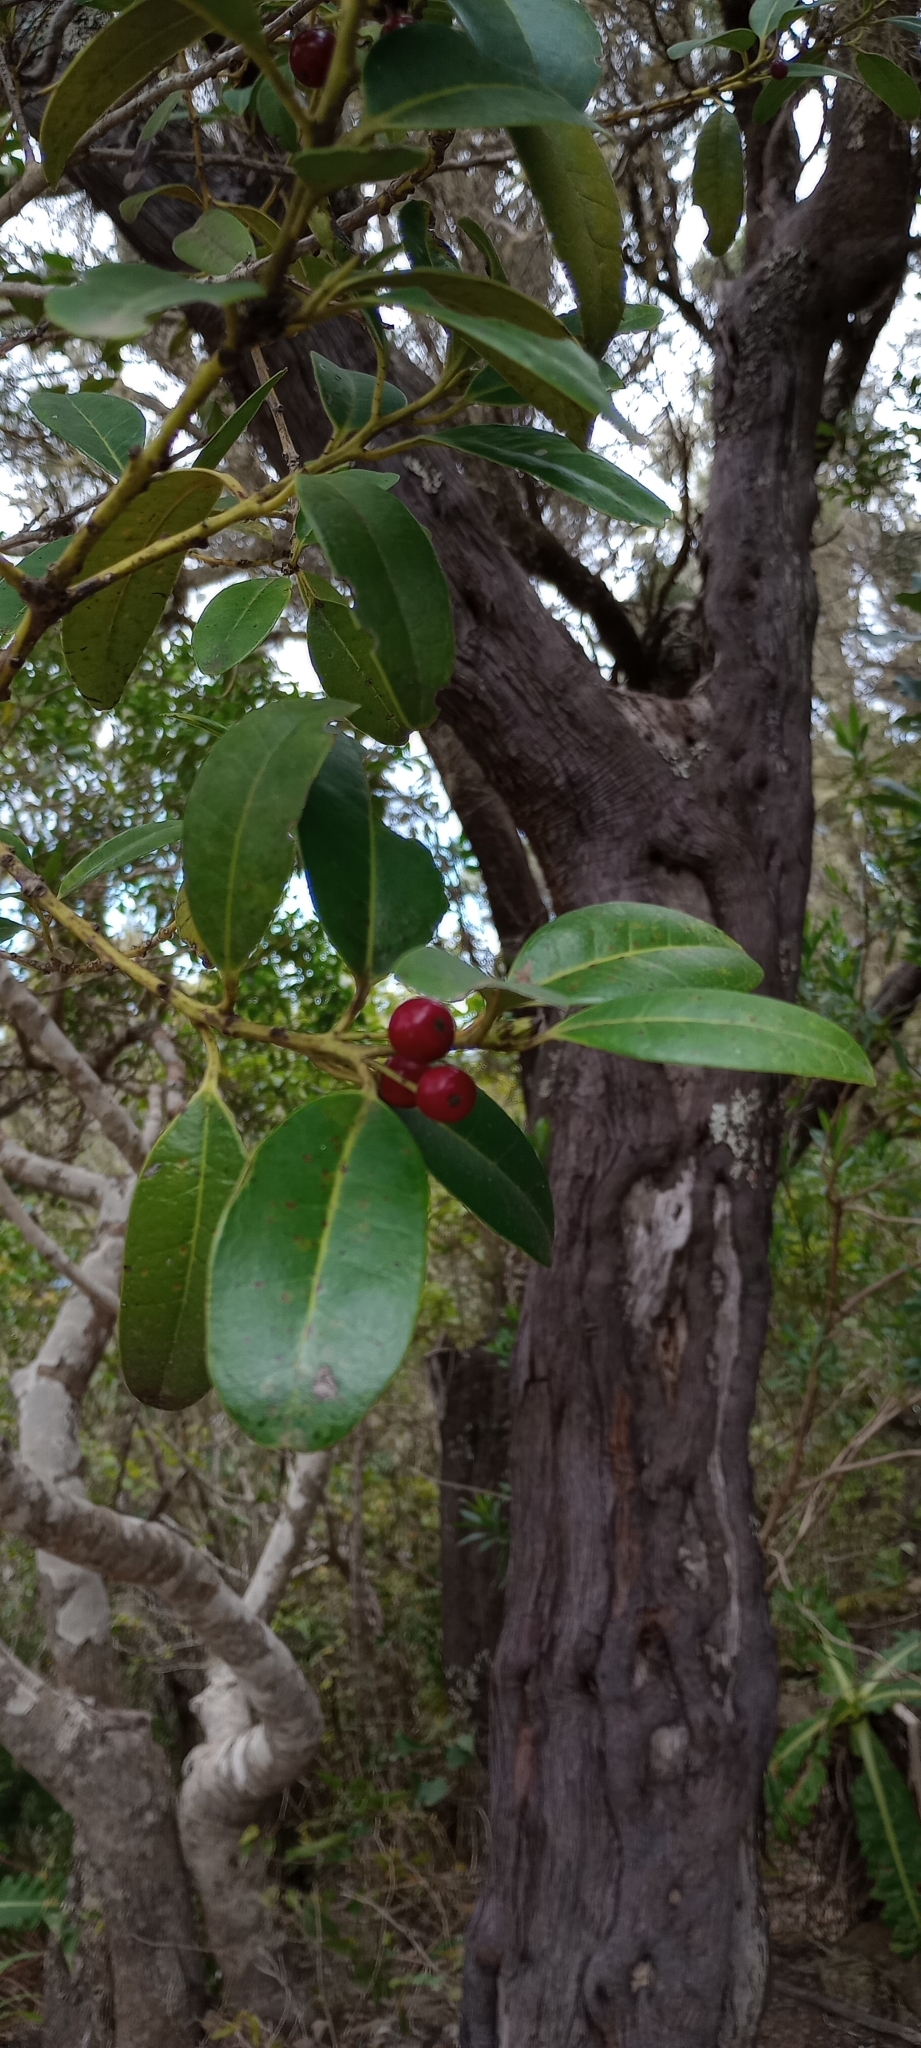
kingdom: Plantae
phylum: Tracheophyta
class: Magnoliopsida
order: Aquifoliales
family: Aquifoliaceae
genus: Ilex
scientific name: Ilex canariensis
